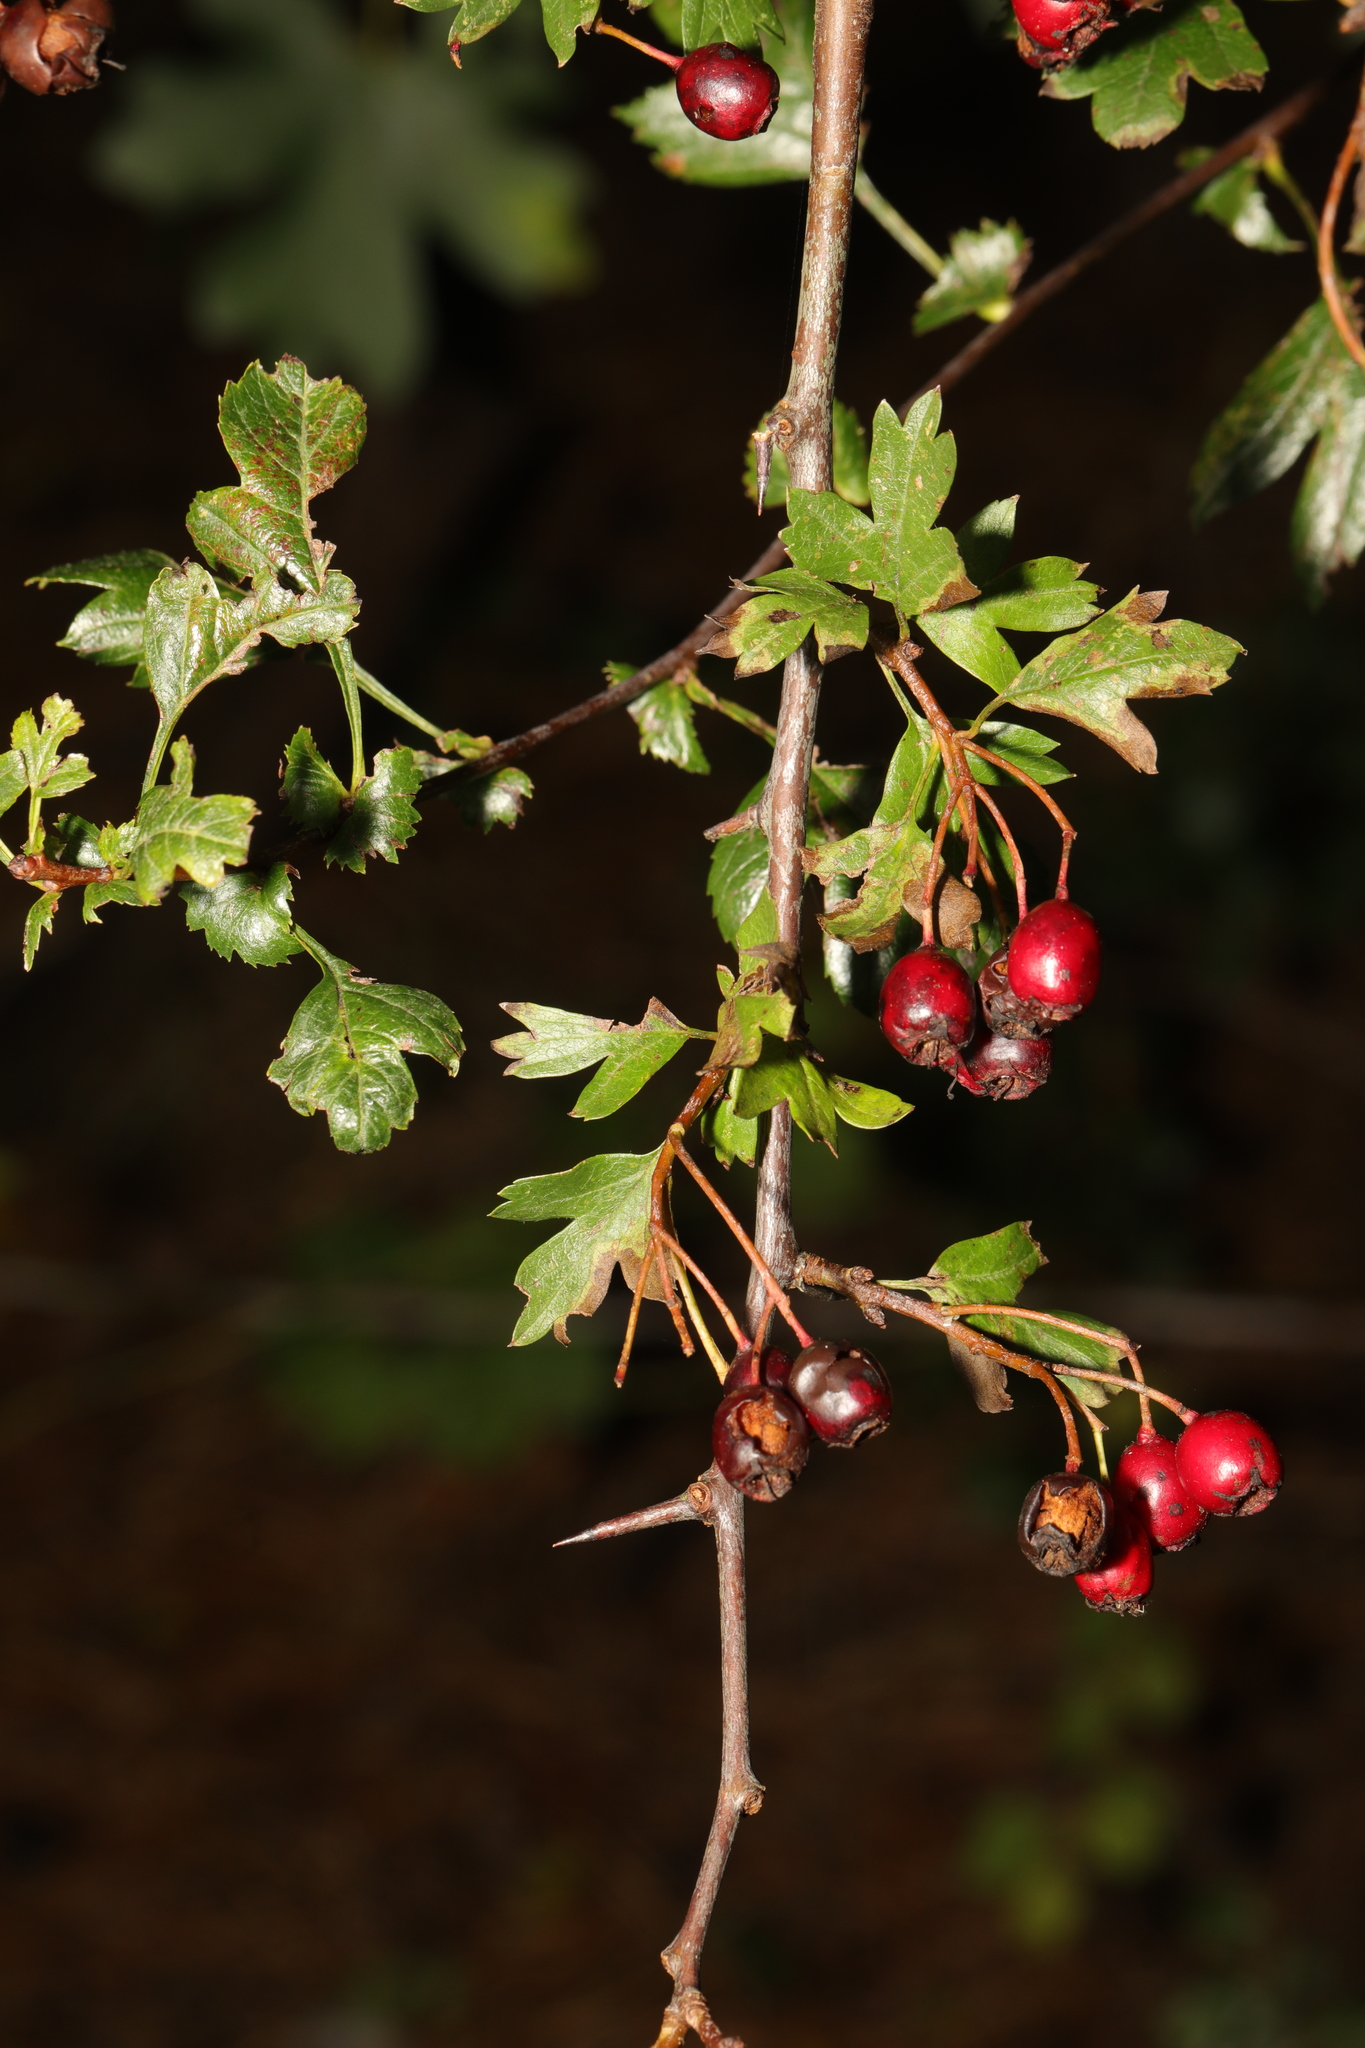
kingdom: Plantae
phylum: Tracheophyta
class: Magnoliopsida
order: Rosales
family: Rosaceae
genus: Crataegus
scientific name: Crataegus monogyna
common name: Hawthorn
